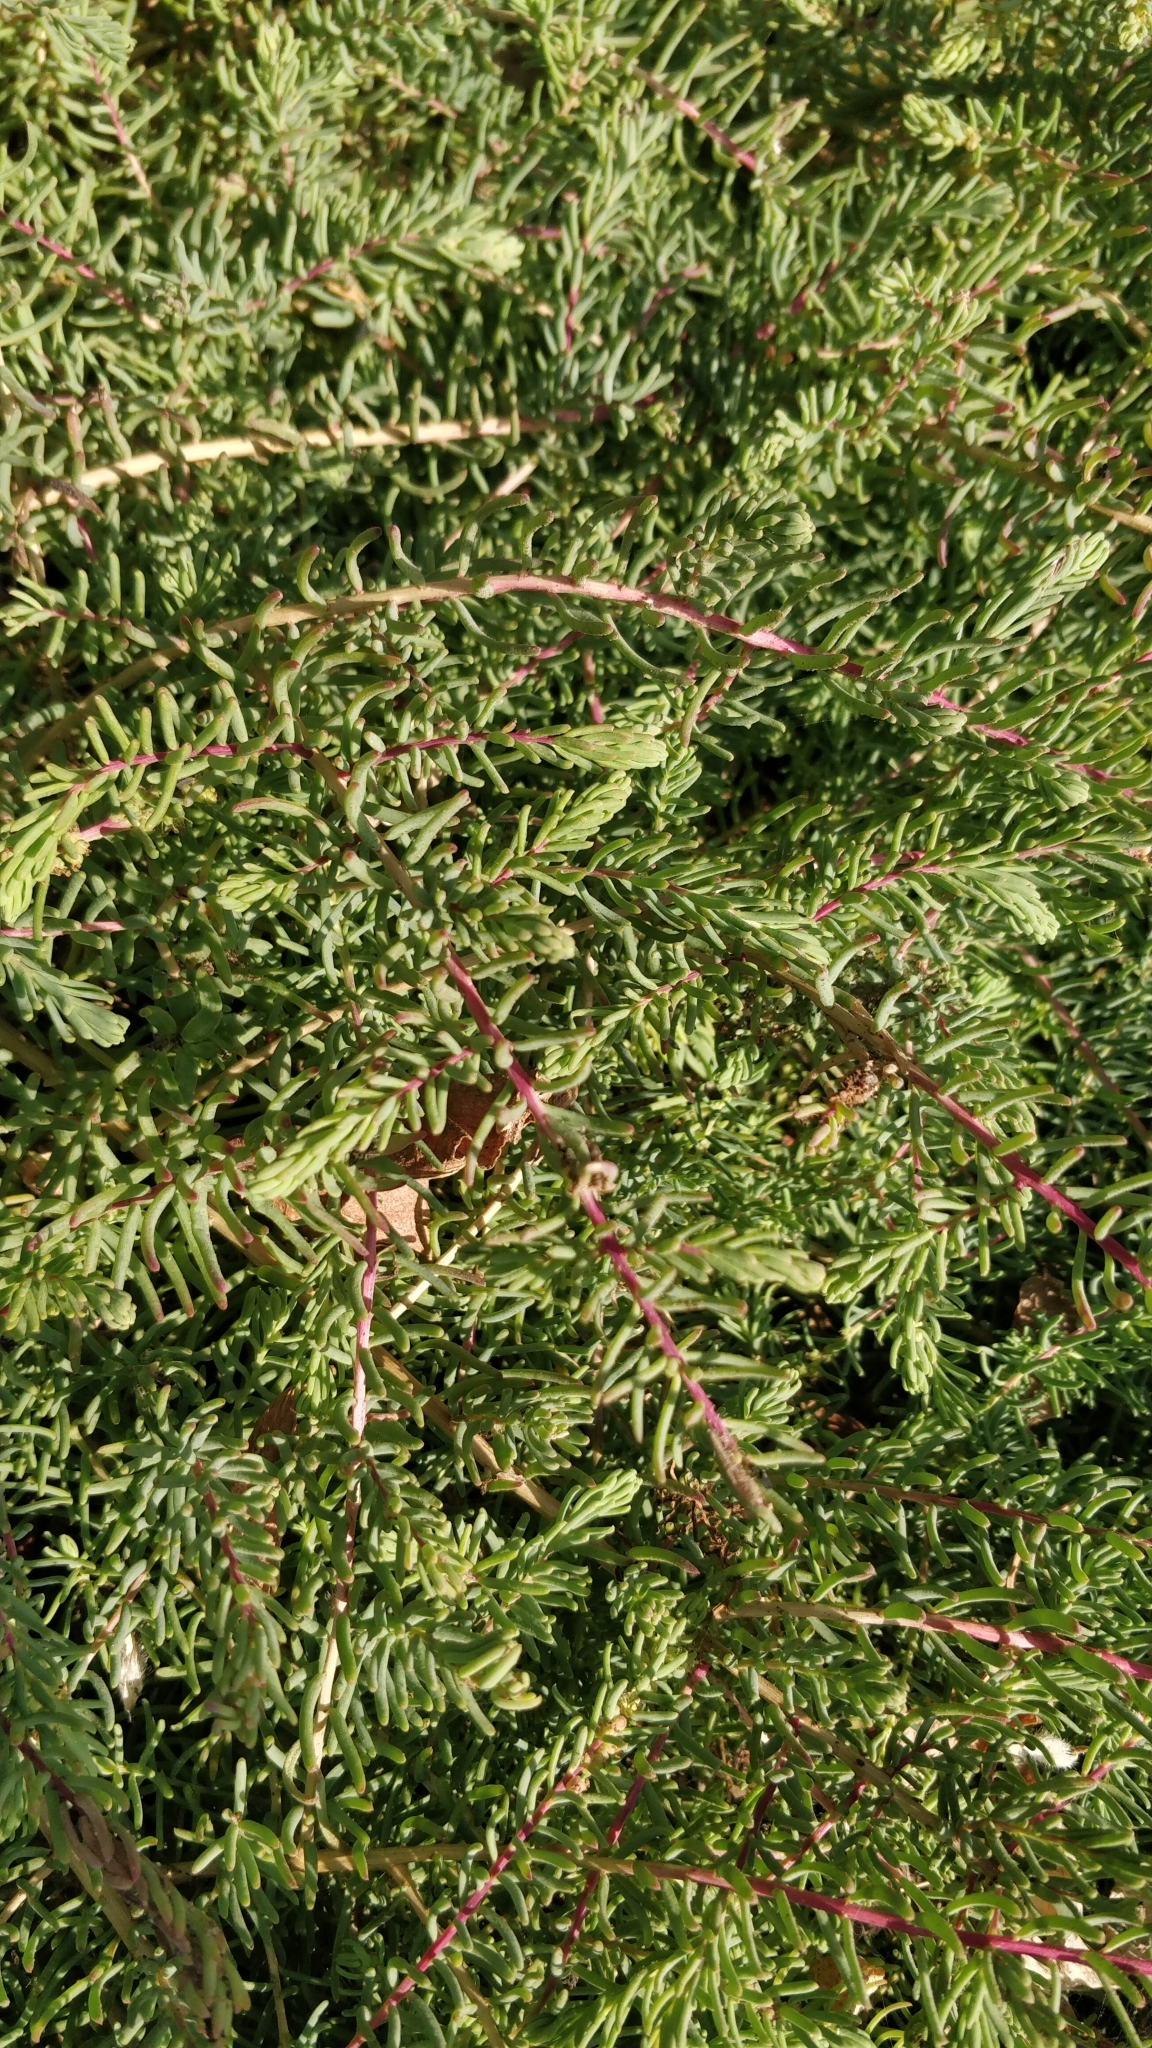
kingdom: Plantae
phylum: Tracheophyta
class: Magnoliopsida
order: Caryophyllales
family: Amaranthaceae
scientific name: Amaranthaceae
